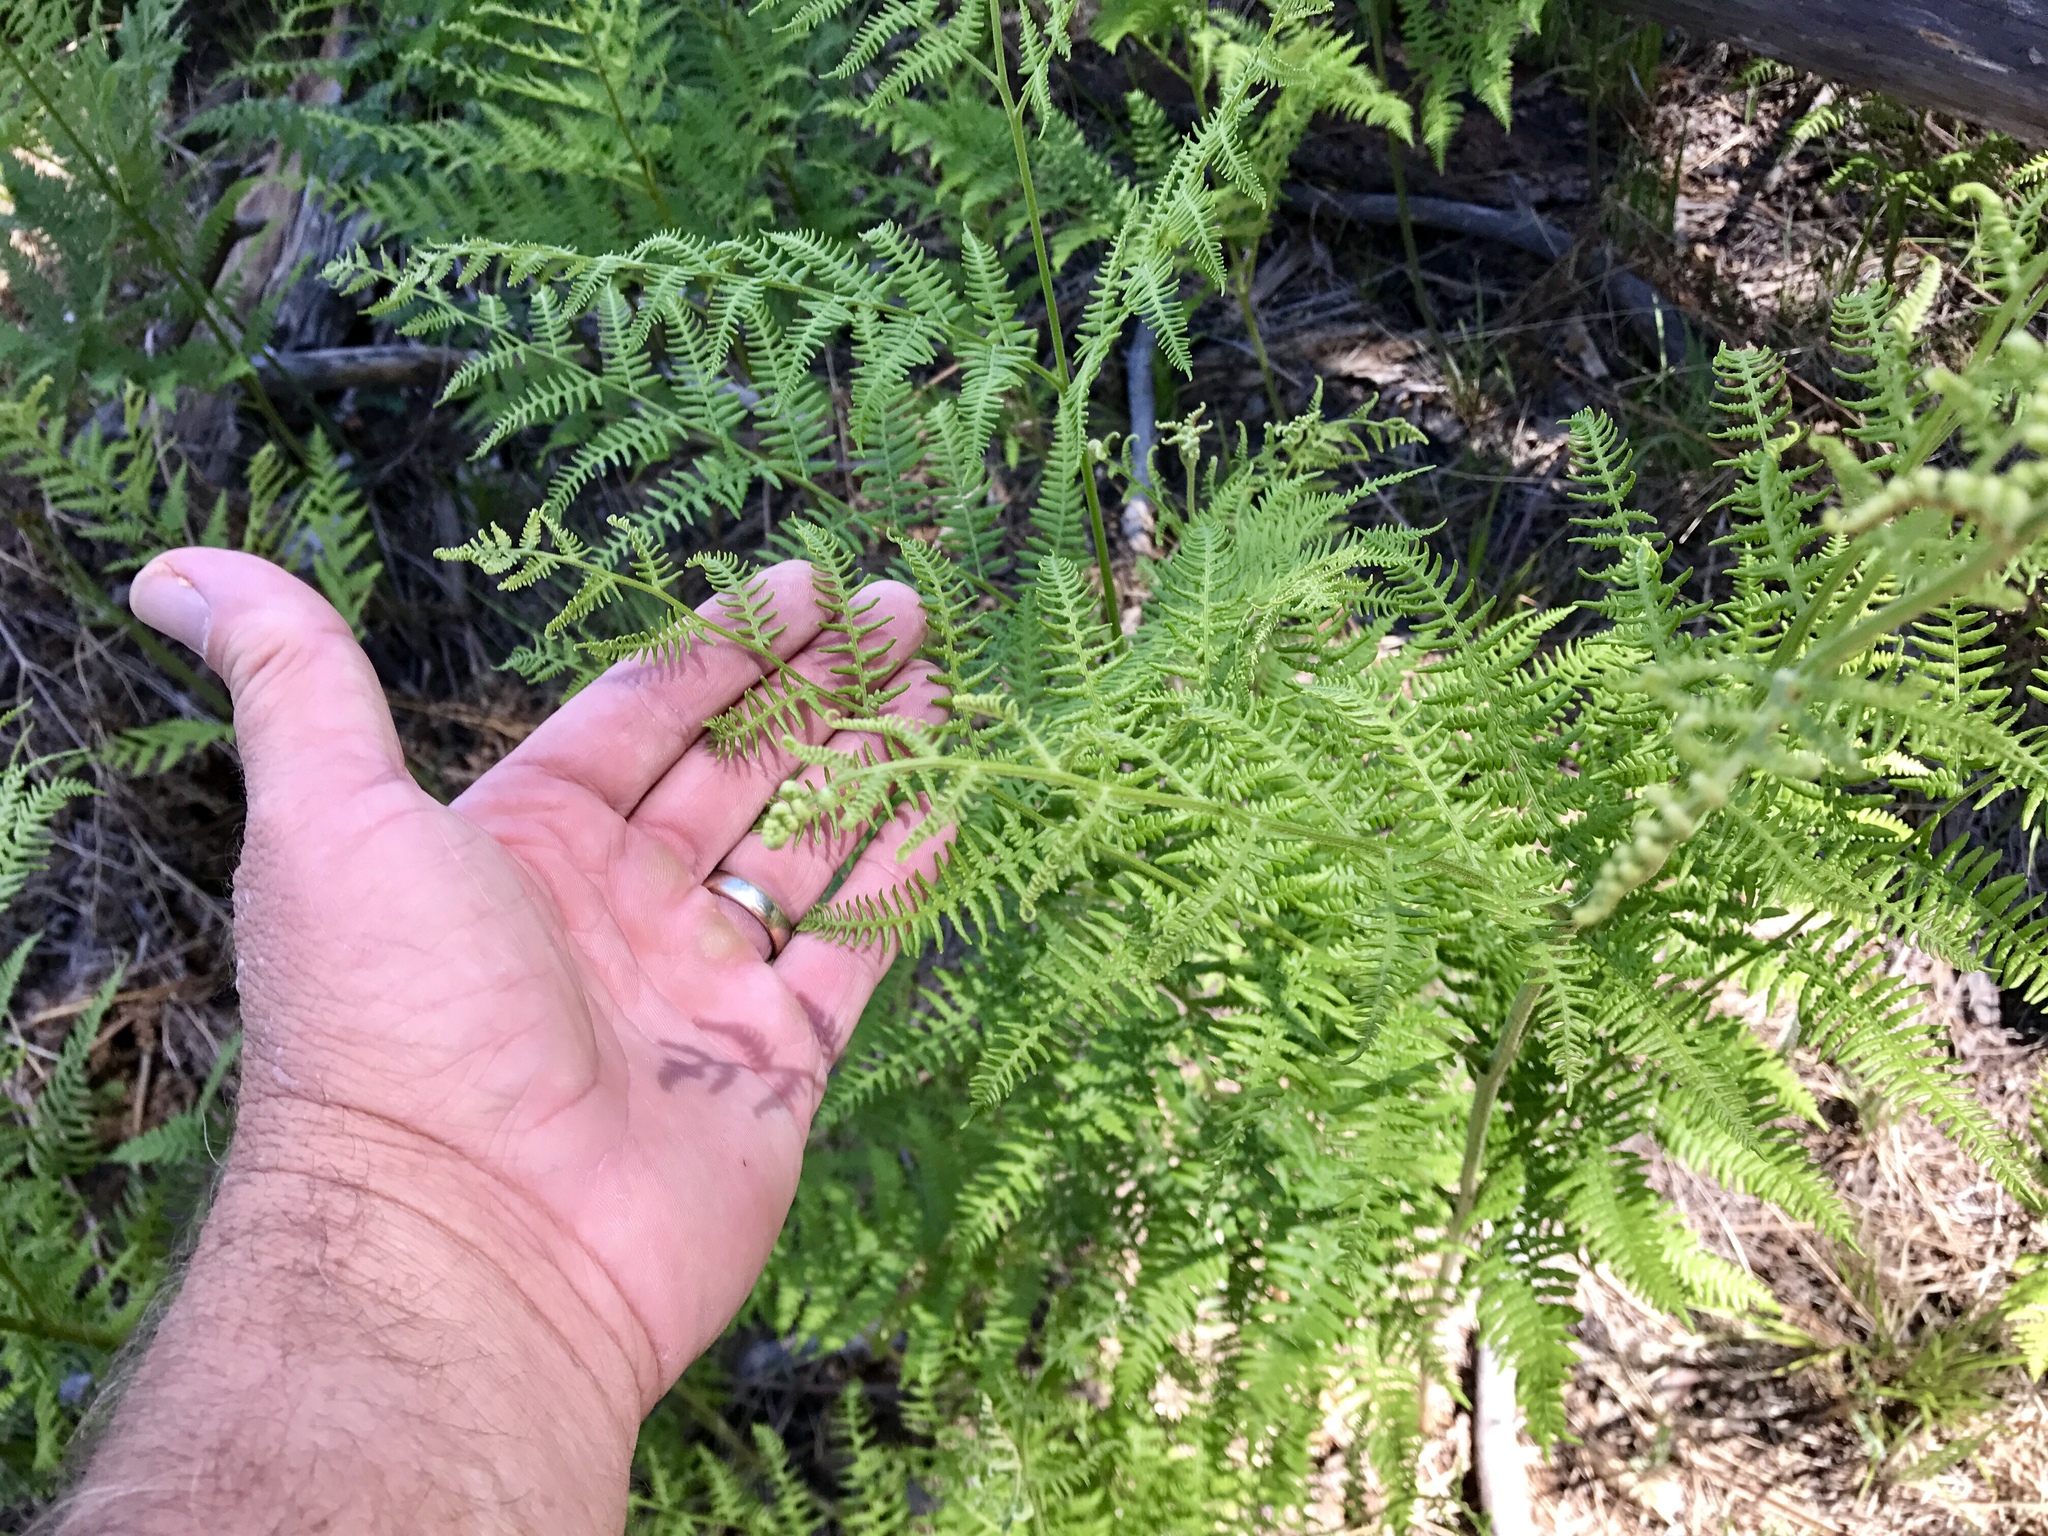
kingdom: Plantae
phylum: Tracheophyta
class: Polypodiopsida
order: Polypodiales
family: Dennstaedtiaceae
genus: Pteridium
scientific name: Pteridium aquilinum
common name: Bracken
